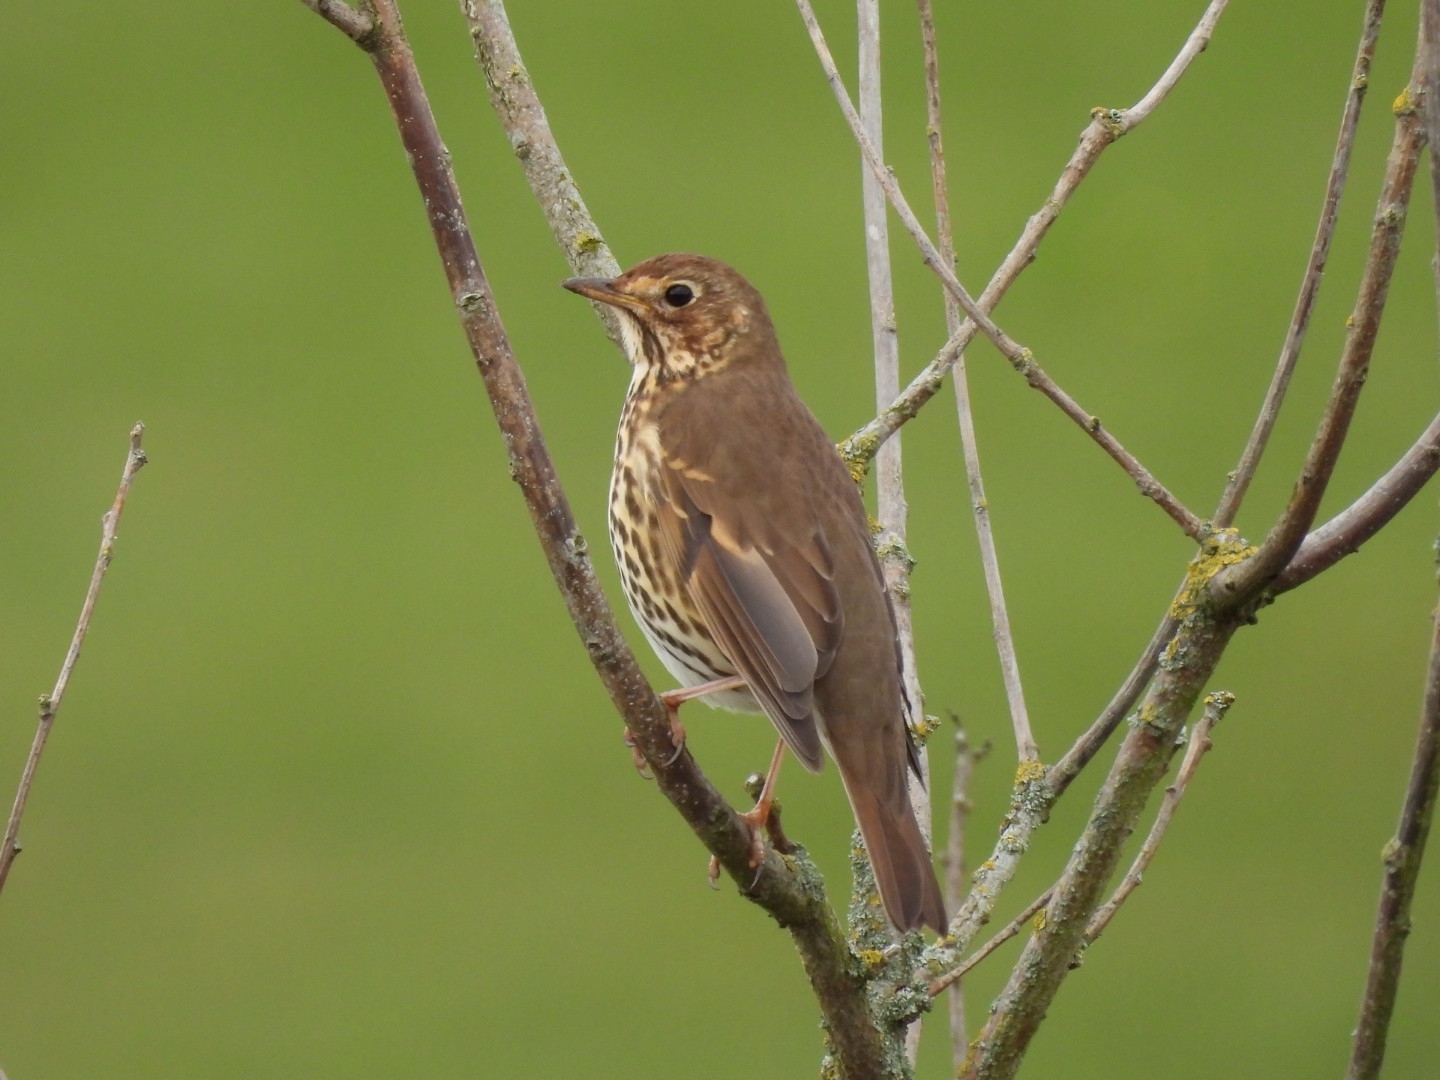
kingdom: Animalia
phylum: Chordata
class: Aves
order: Passeriformes
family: Turdidae
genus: Turdus
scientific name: Turdus philomelos
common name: Song thrush
